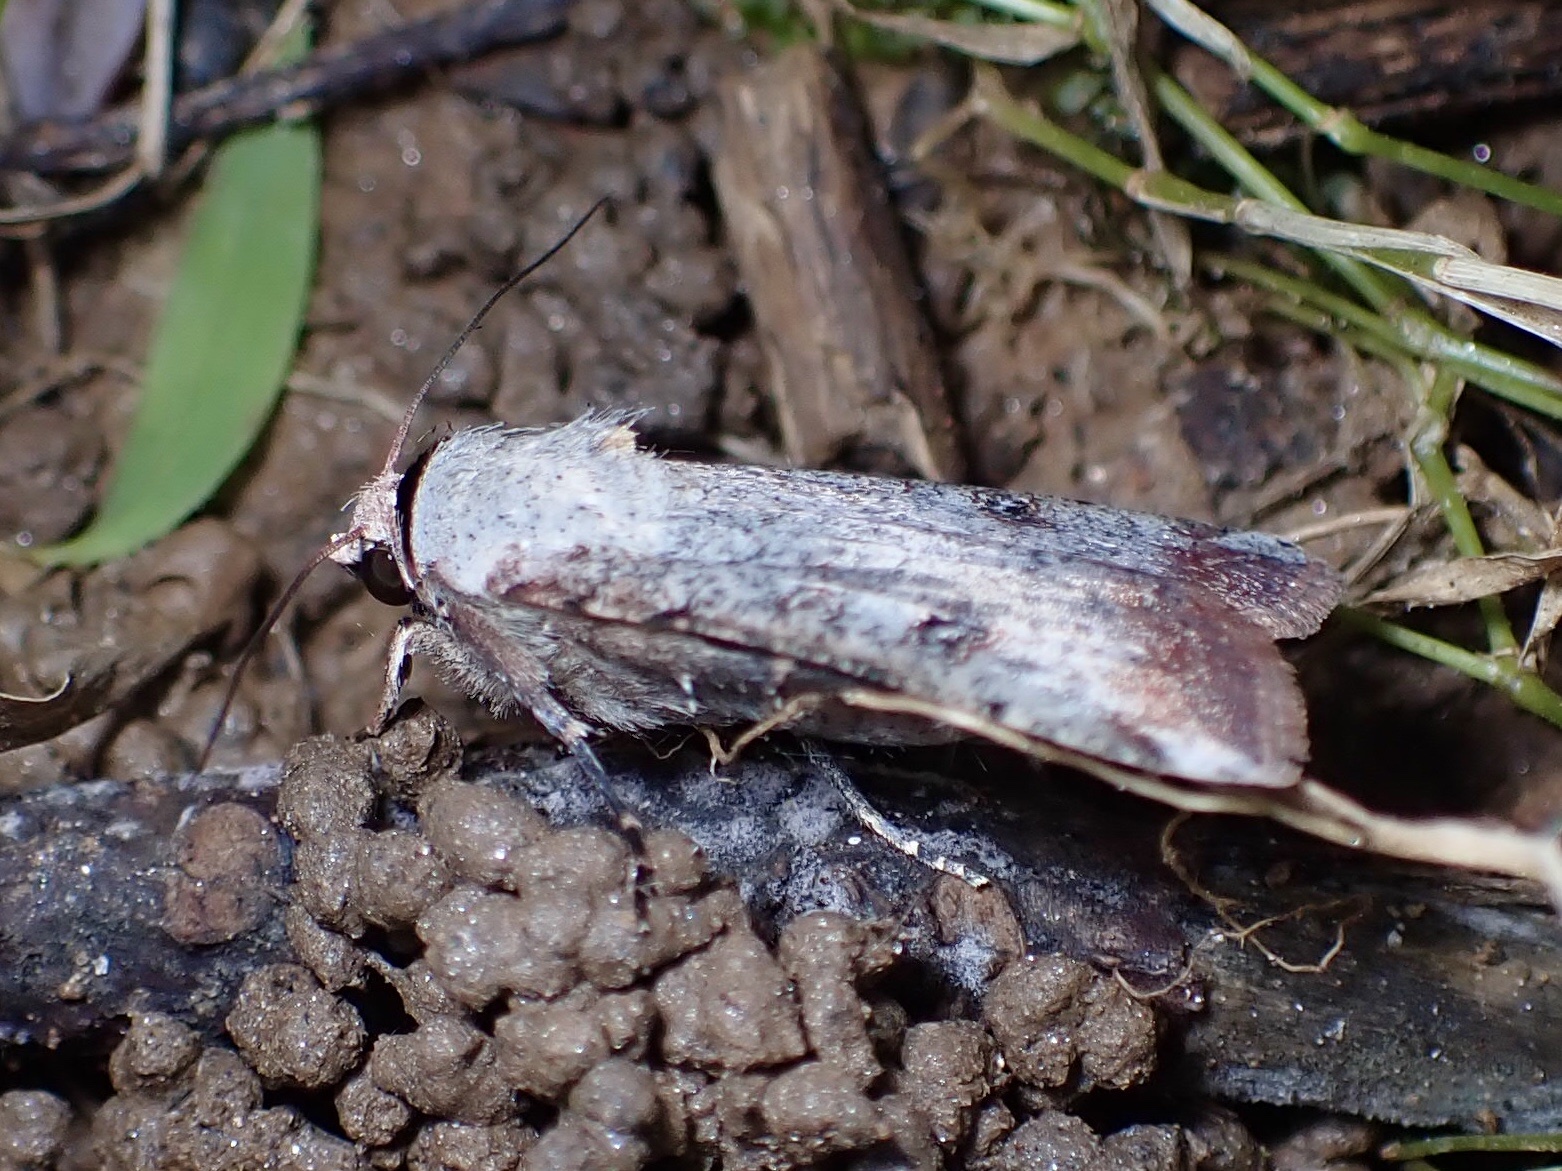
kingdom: Animalia
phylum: Arthropoda
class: Insecta
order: Lepidoptera
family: Noctuidae
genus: Anicla
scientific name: Anicla infecta
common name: Green cutworm
